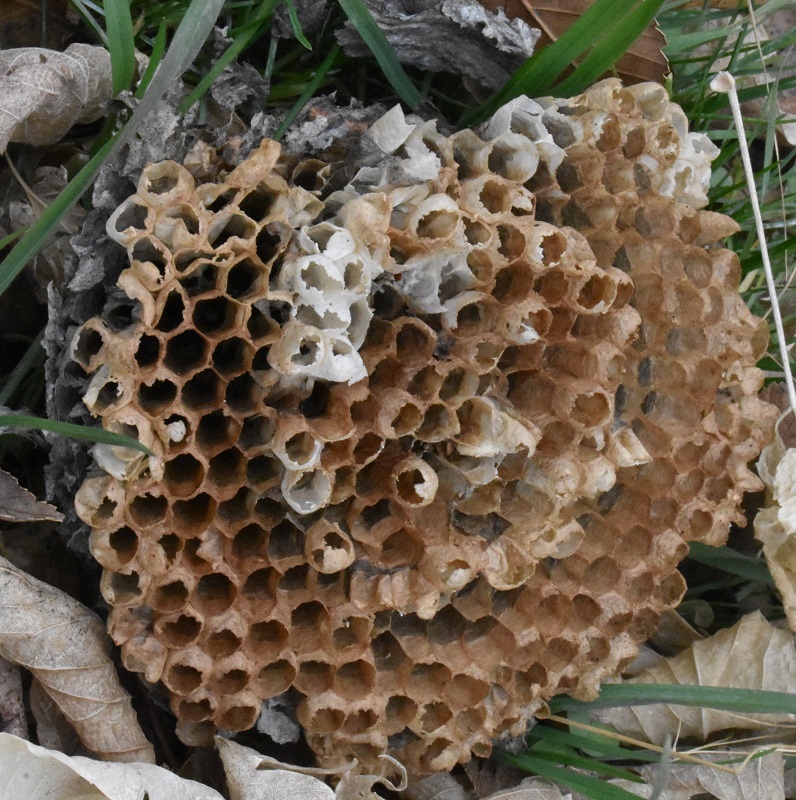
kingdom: Animalia
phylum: Arthropoda
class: Insecta
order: Hymenoptera
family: Vespidae
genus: Dolichovespula
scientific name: Dolichovespula
